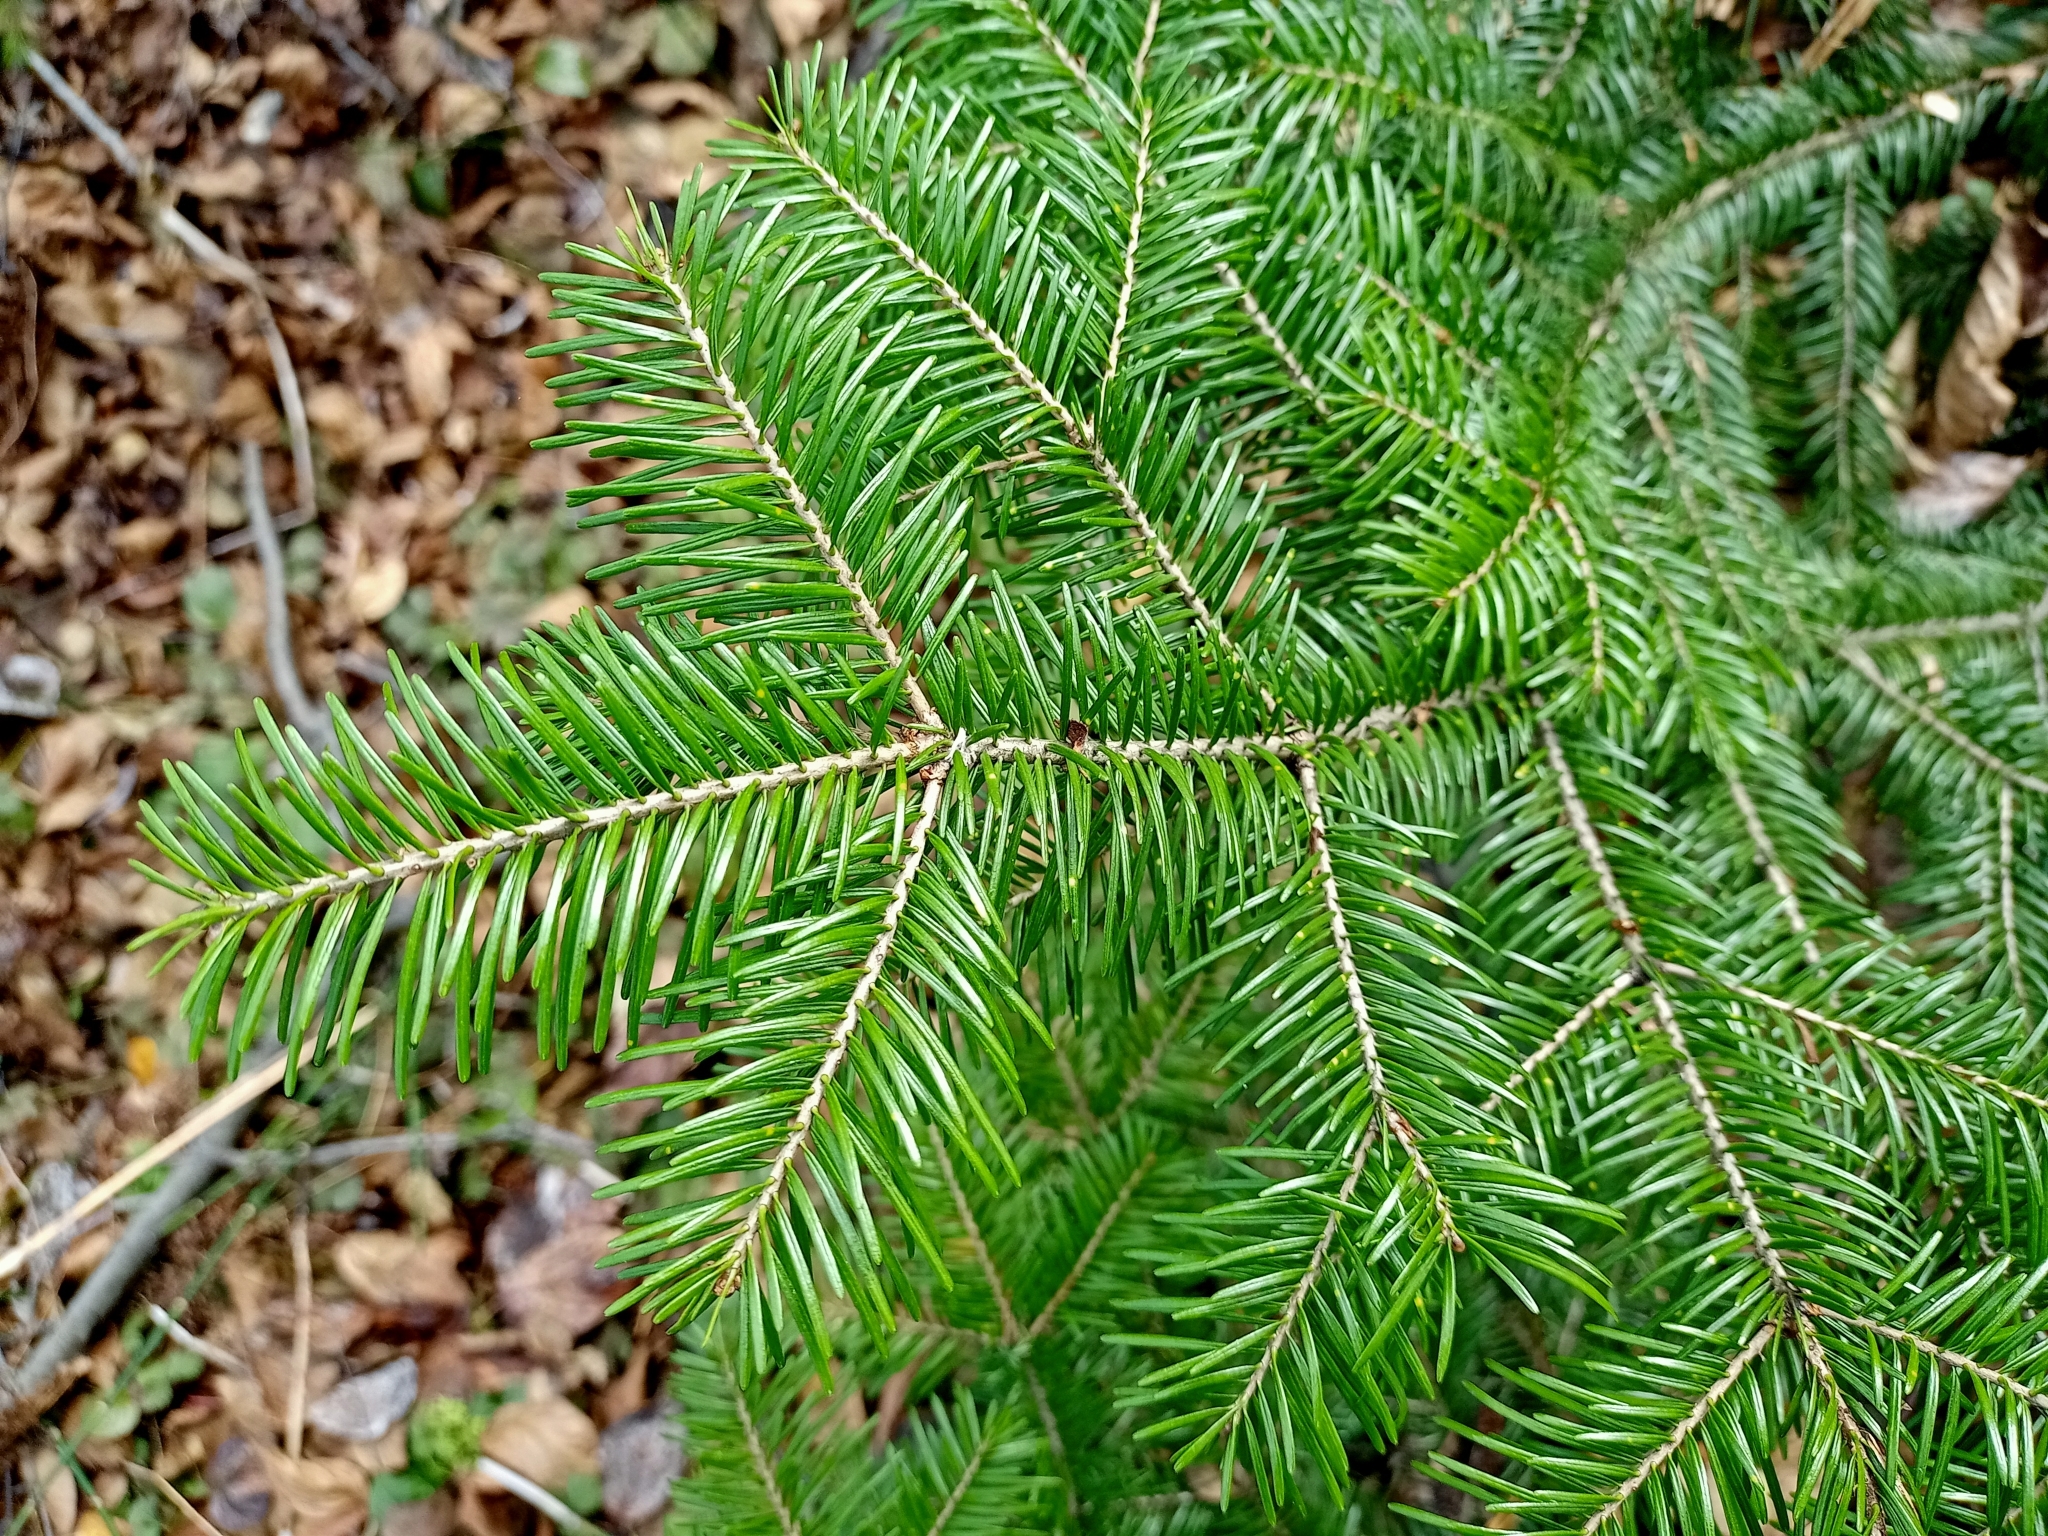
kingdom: Plantae
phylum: Tracheophyta
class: Pinopsida
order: Pinales
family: Pinaceae
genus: Abies
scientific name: Abies sibirica
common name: Siberian fir
